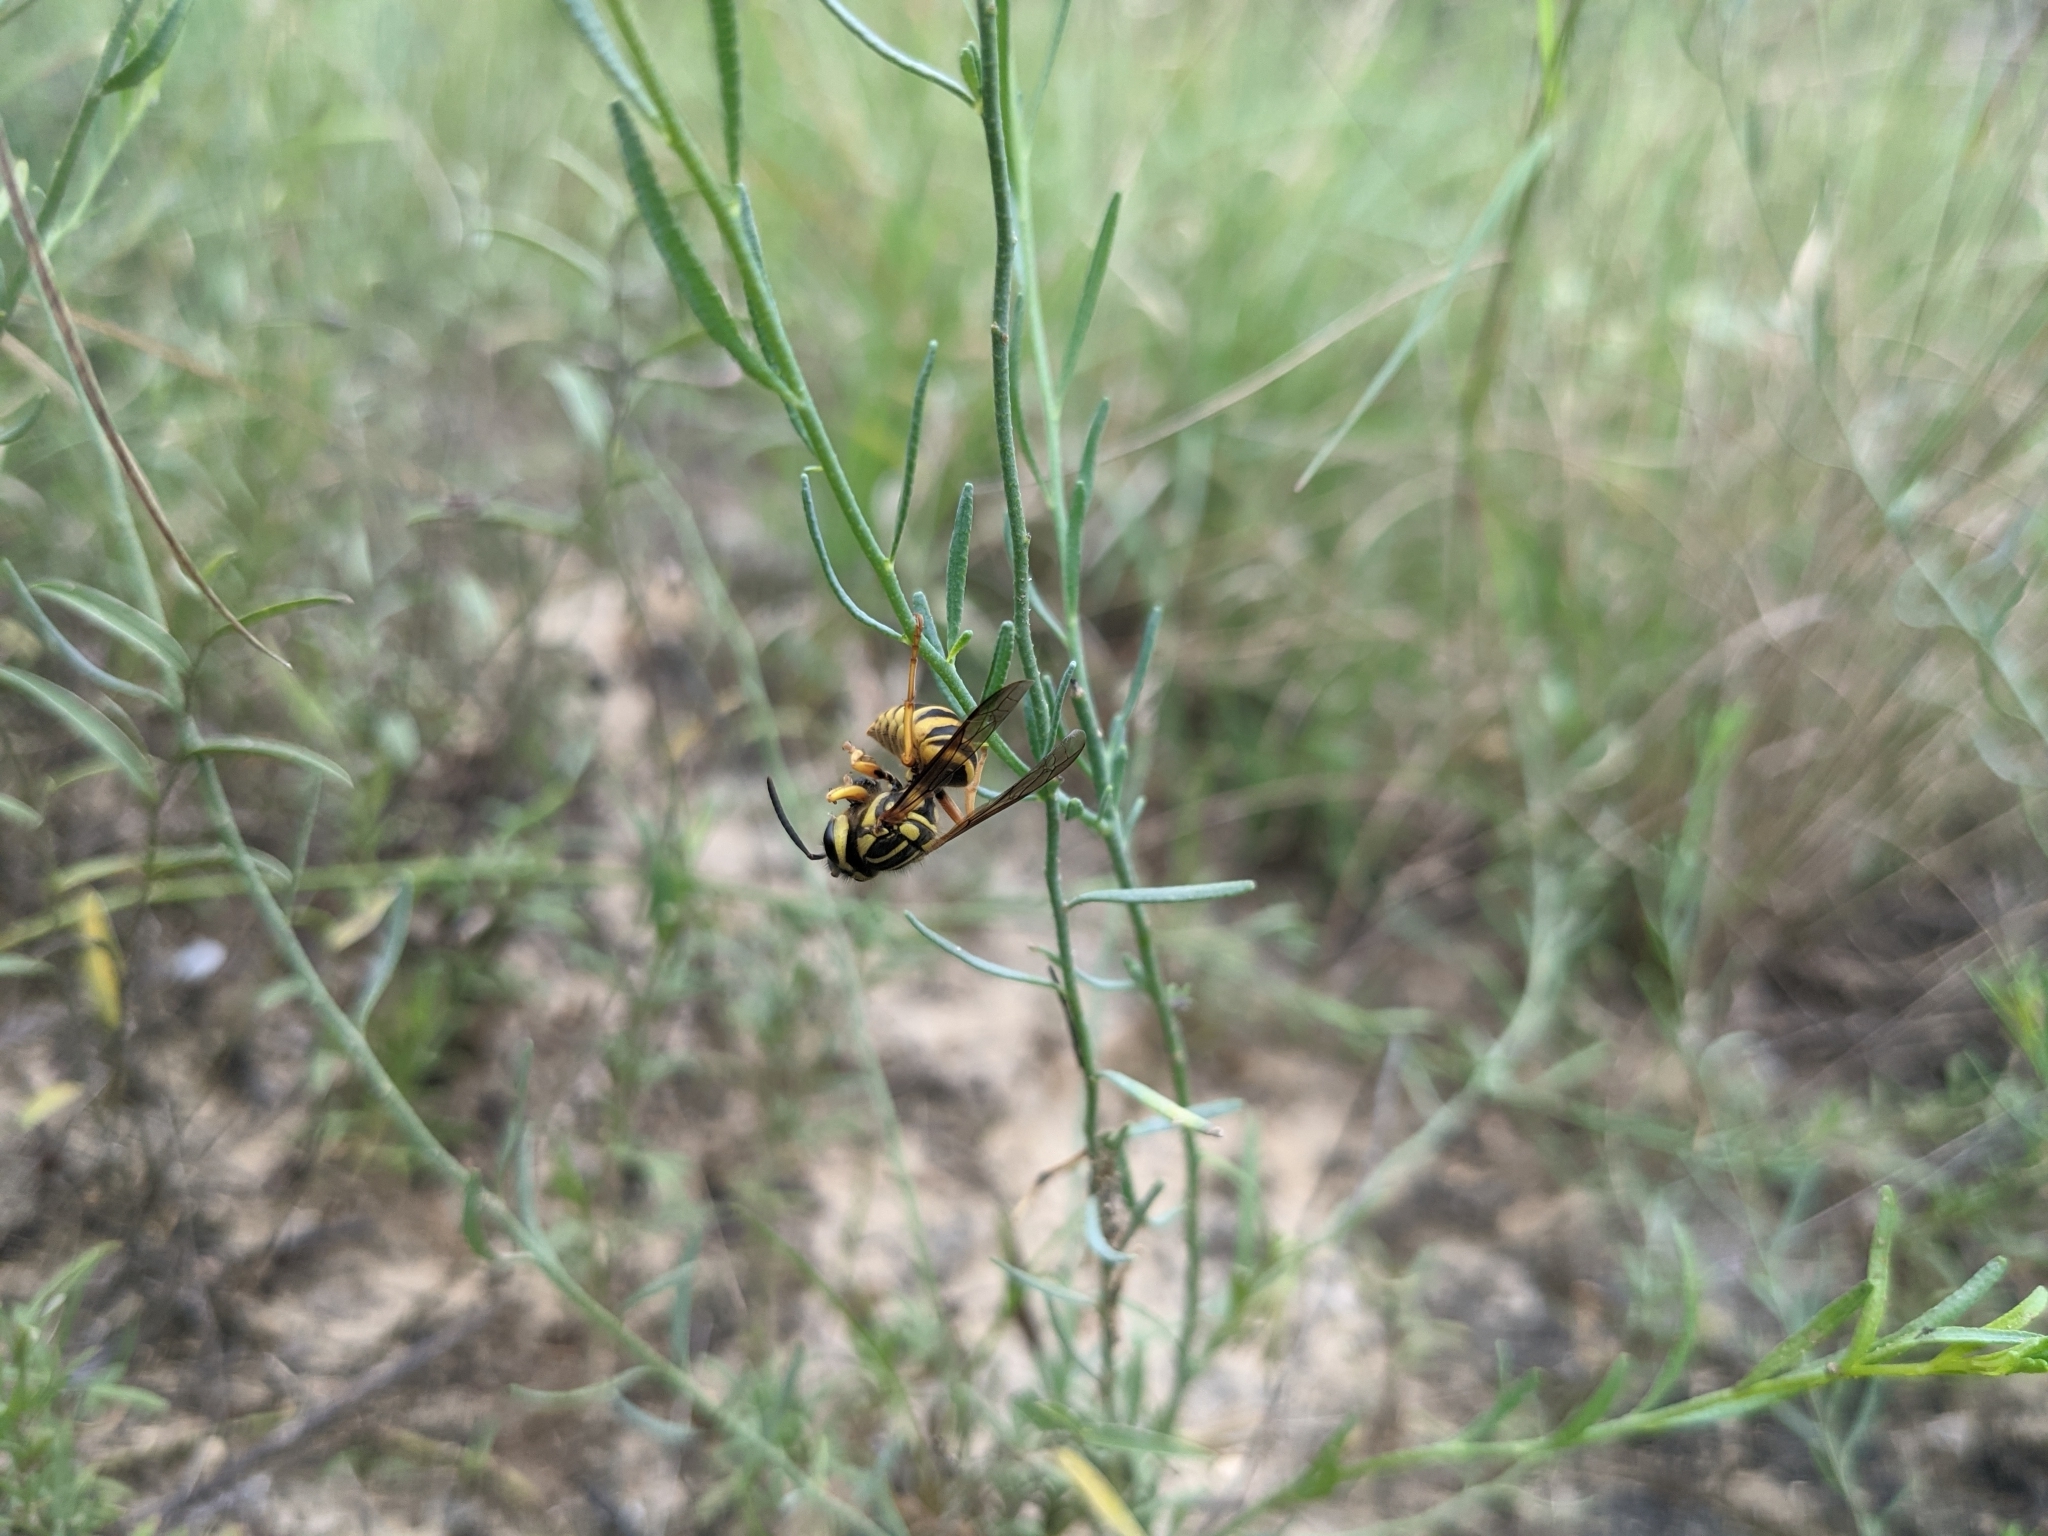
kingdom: Animalia
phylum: Arthropoda
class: Insecta
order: Hymenoptera
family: Vespidae
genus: Vespula
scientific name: Vespula squamosa
